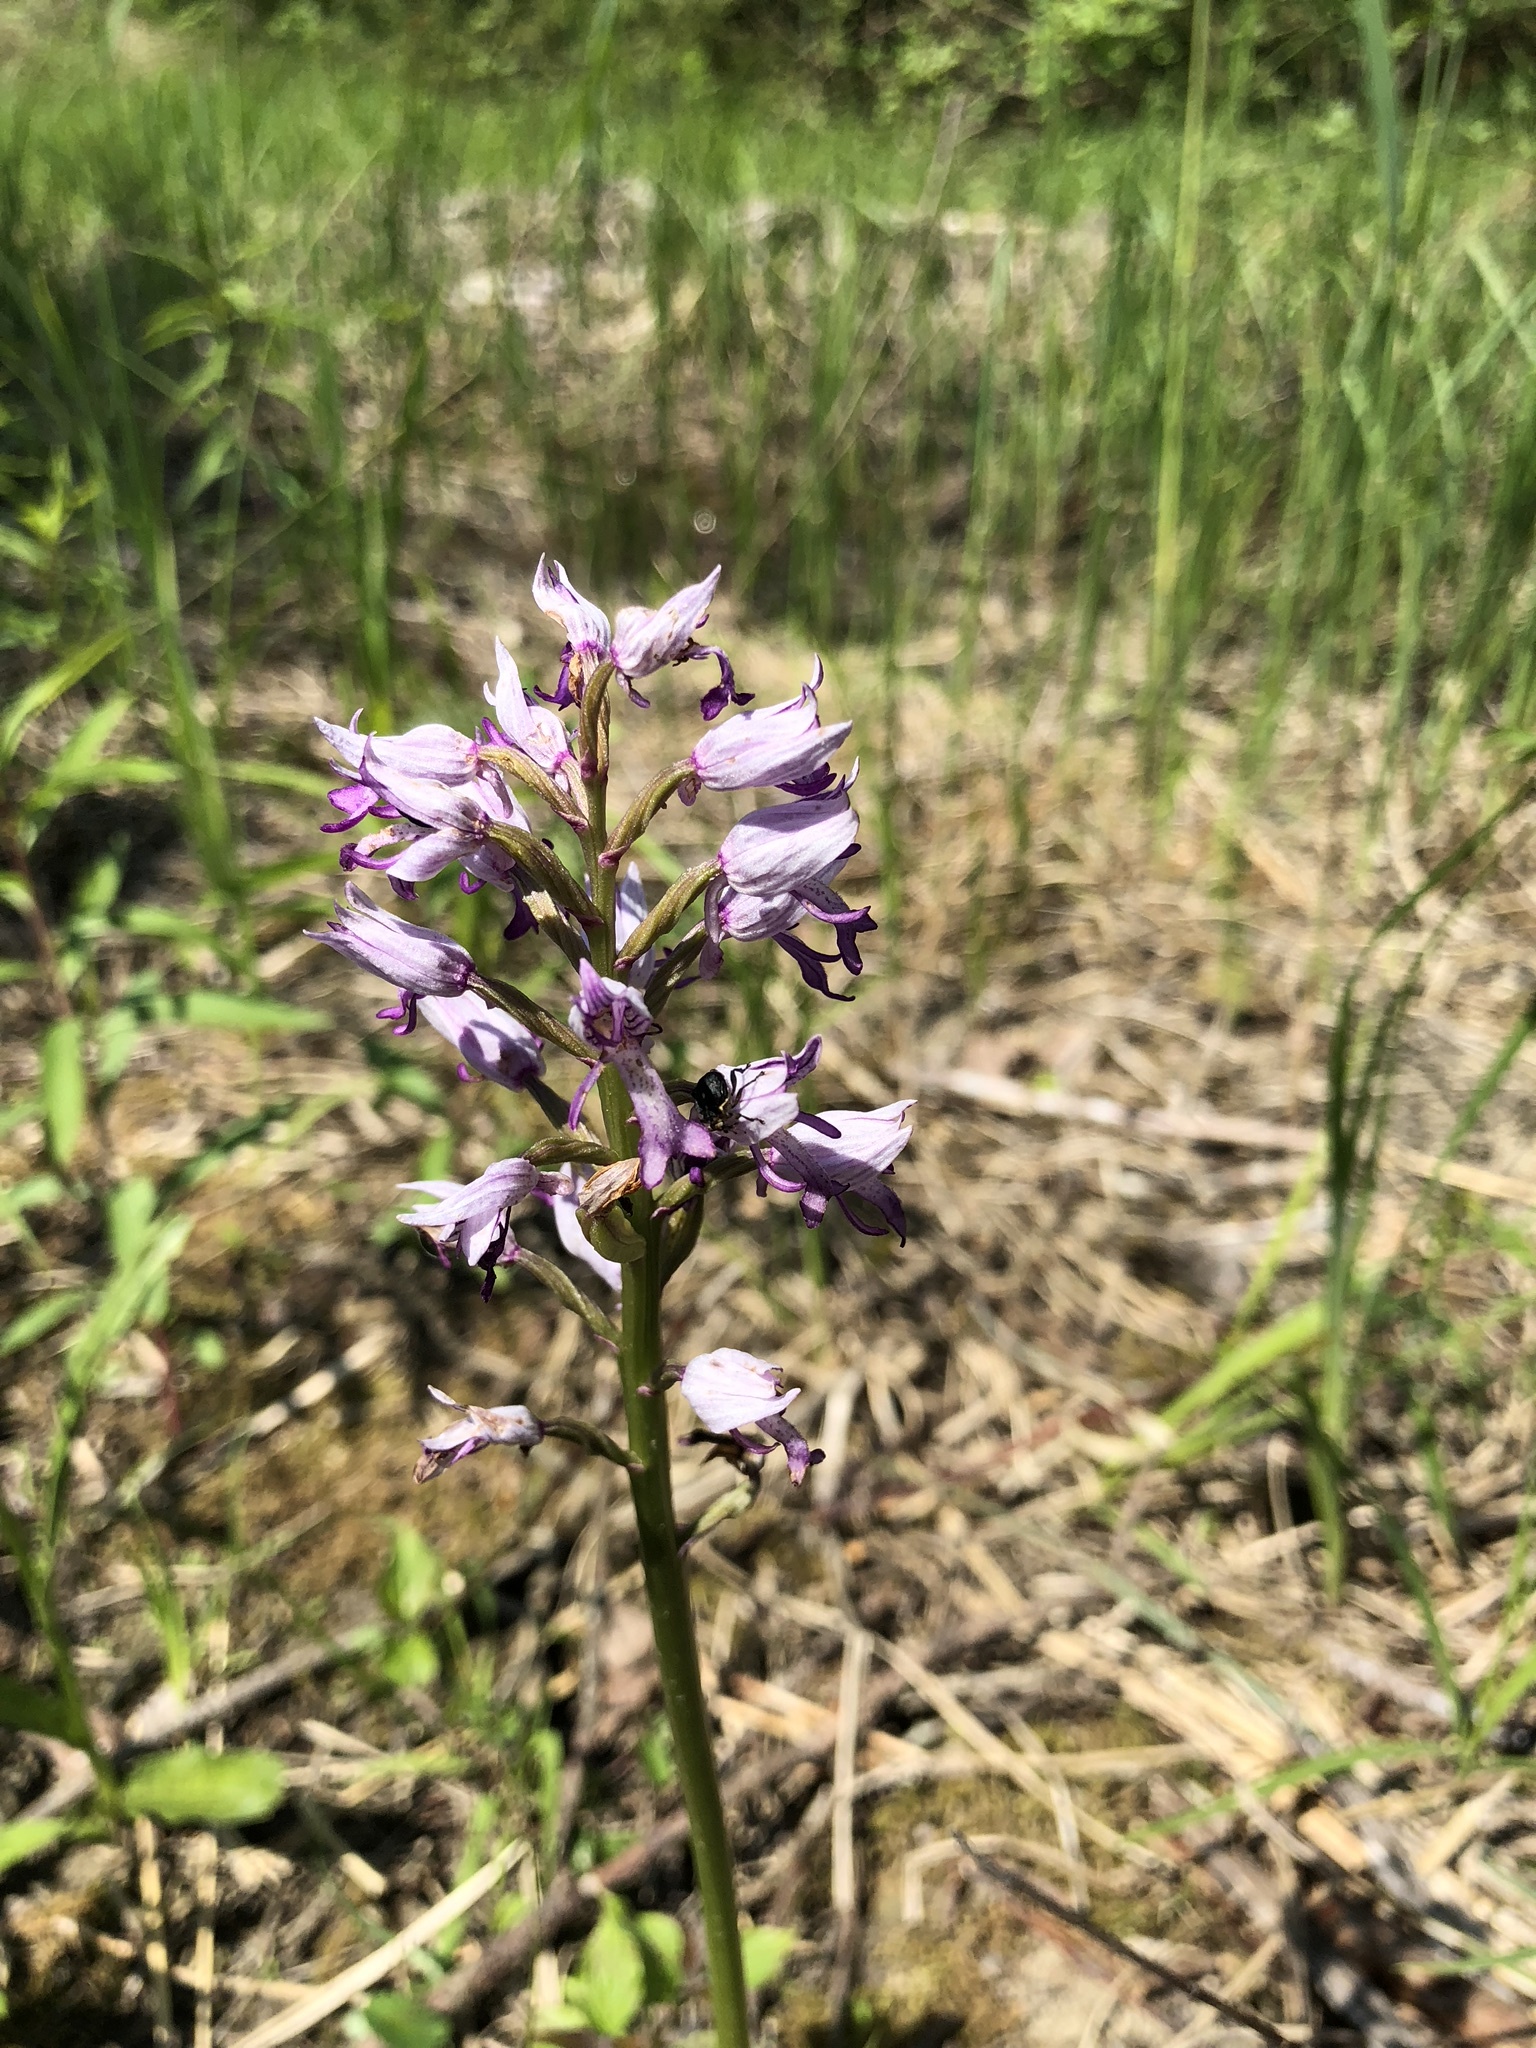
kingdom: Plantae
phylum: Tracheophyta
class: Liliopsida
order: Asparagales
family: Orchidaceae
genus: Orchis
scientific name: Orchis militaris
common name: Military orchid
